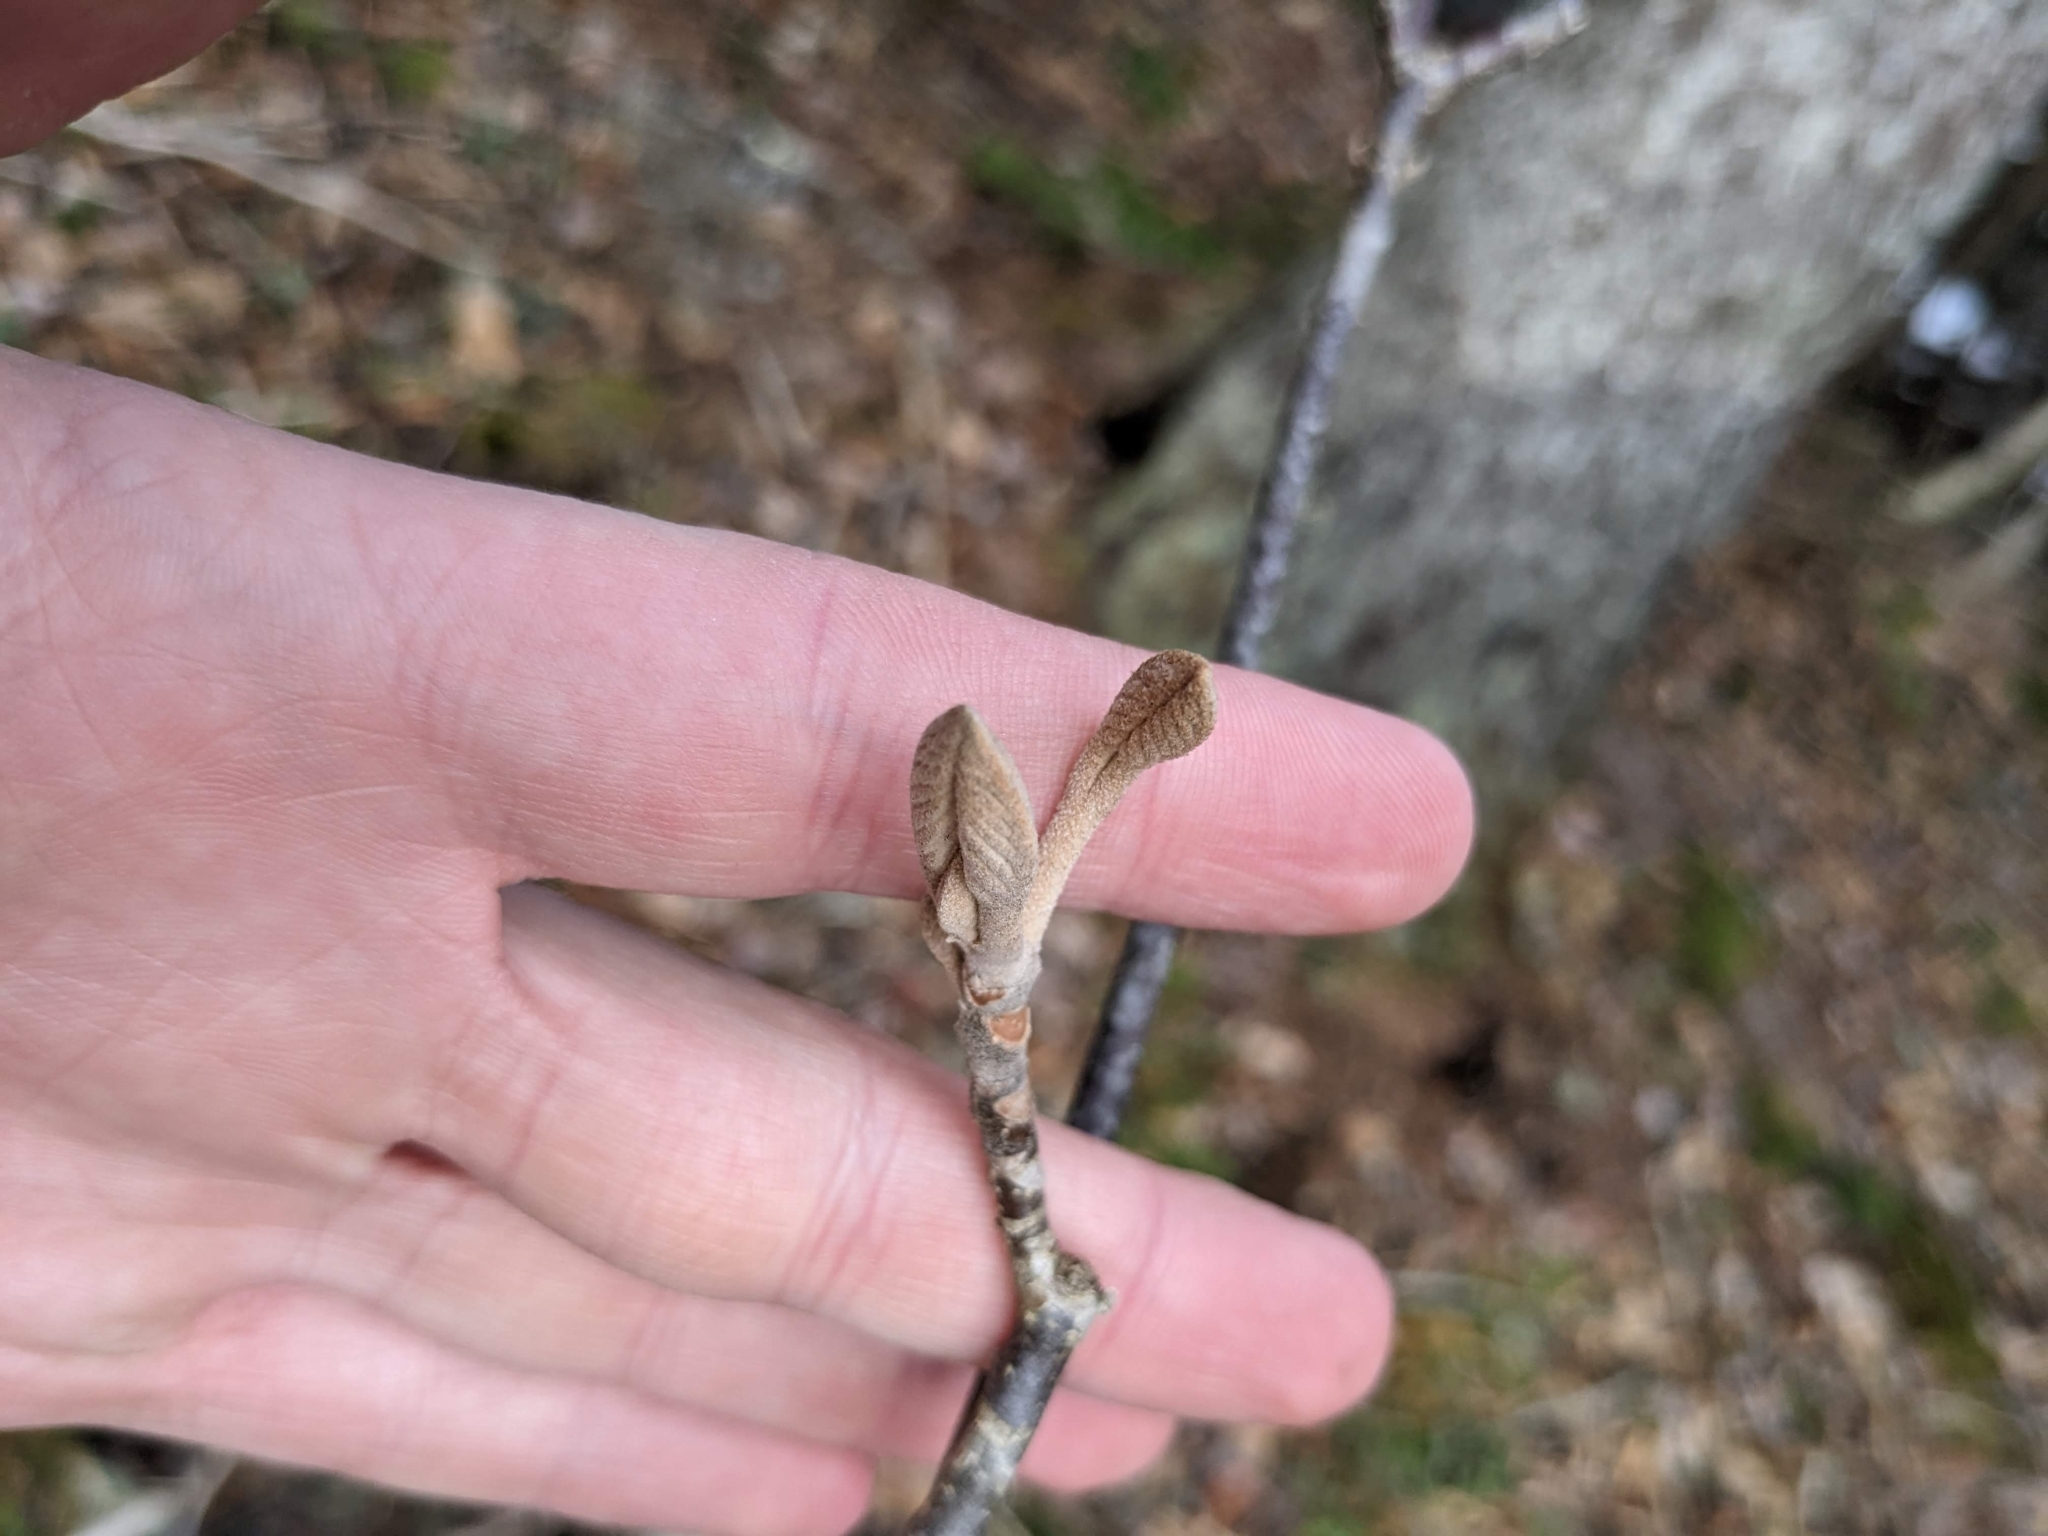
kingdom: Plantae
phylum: Tracheophyta
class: Magnoliopsida
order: Dipsacales
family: Viburnaceae
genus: Viburnum
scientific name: Viburnum lantanoides
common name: Hobblebush
